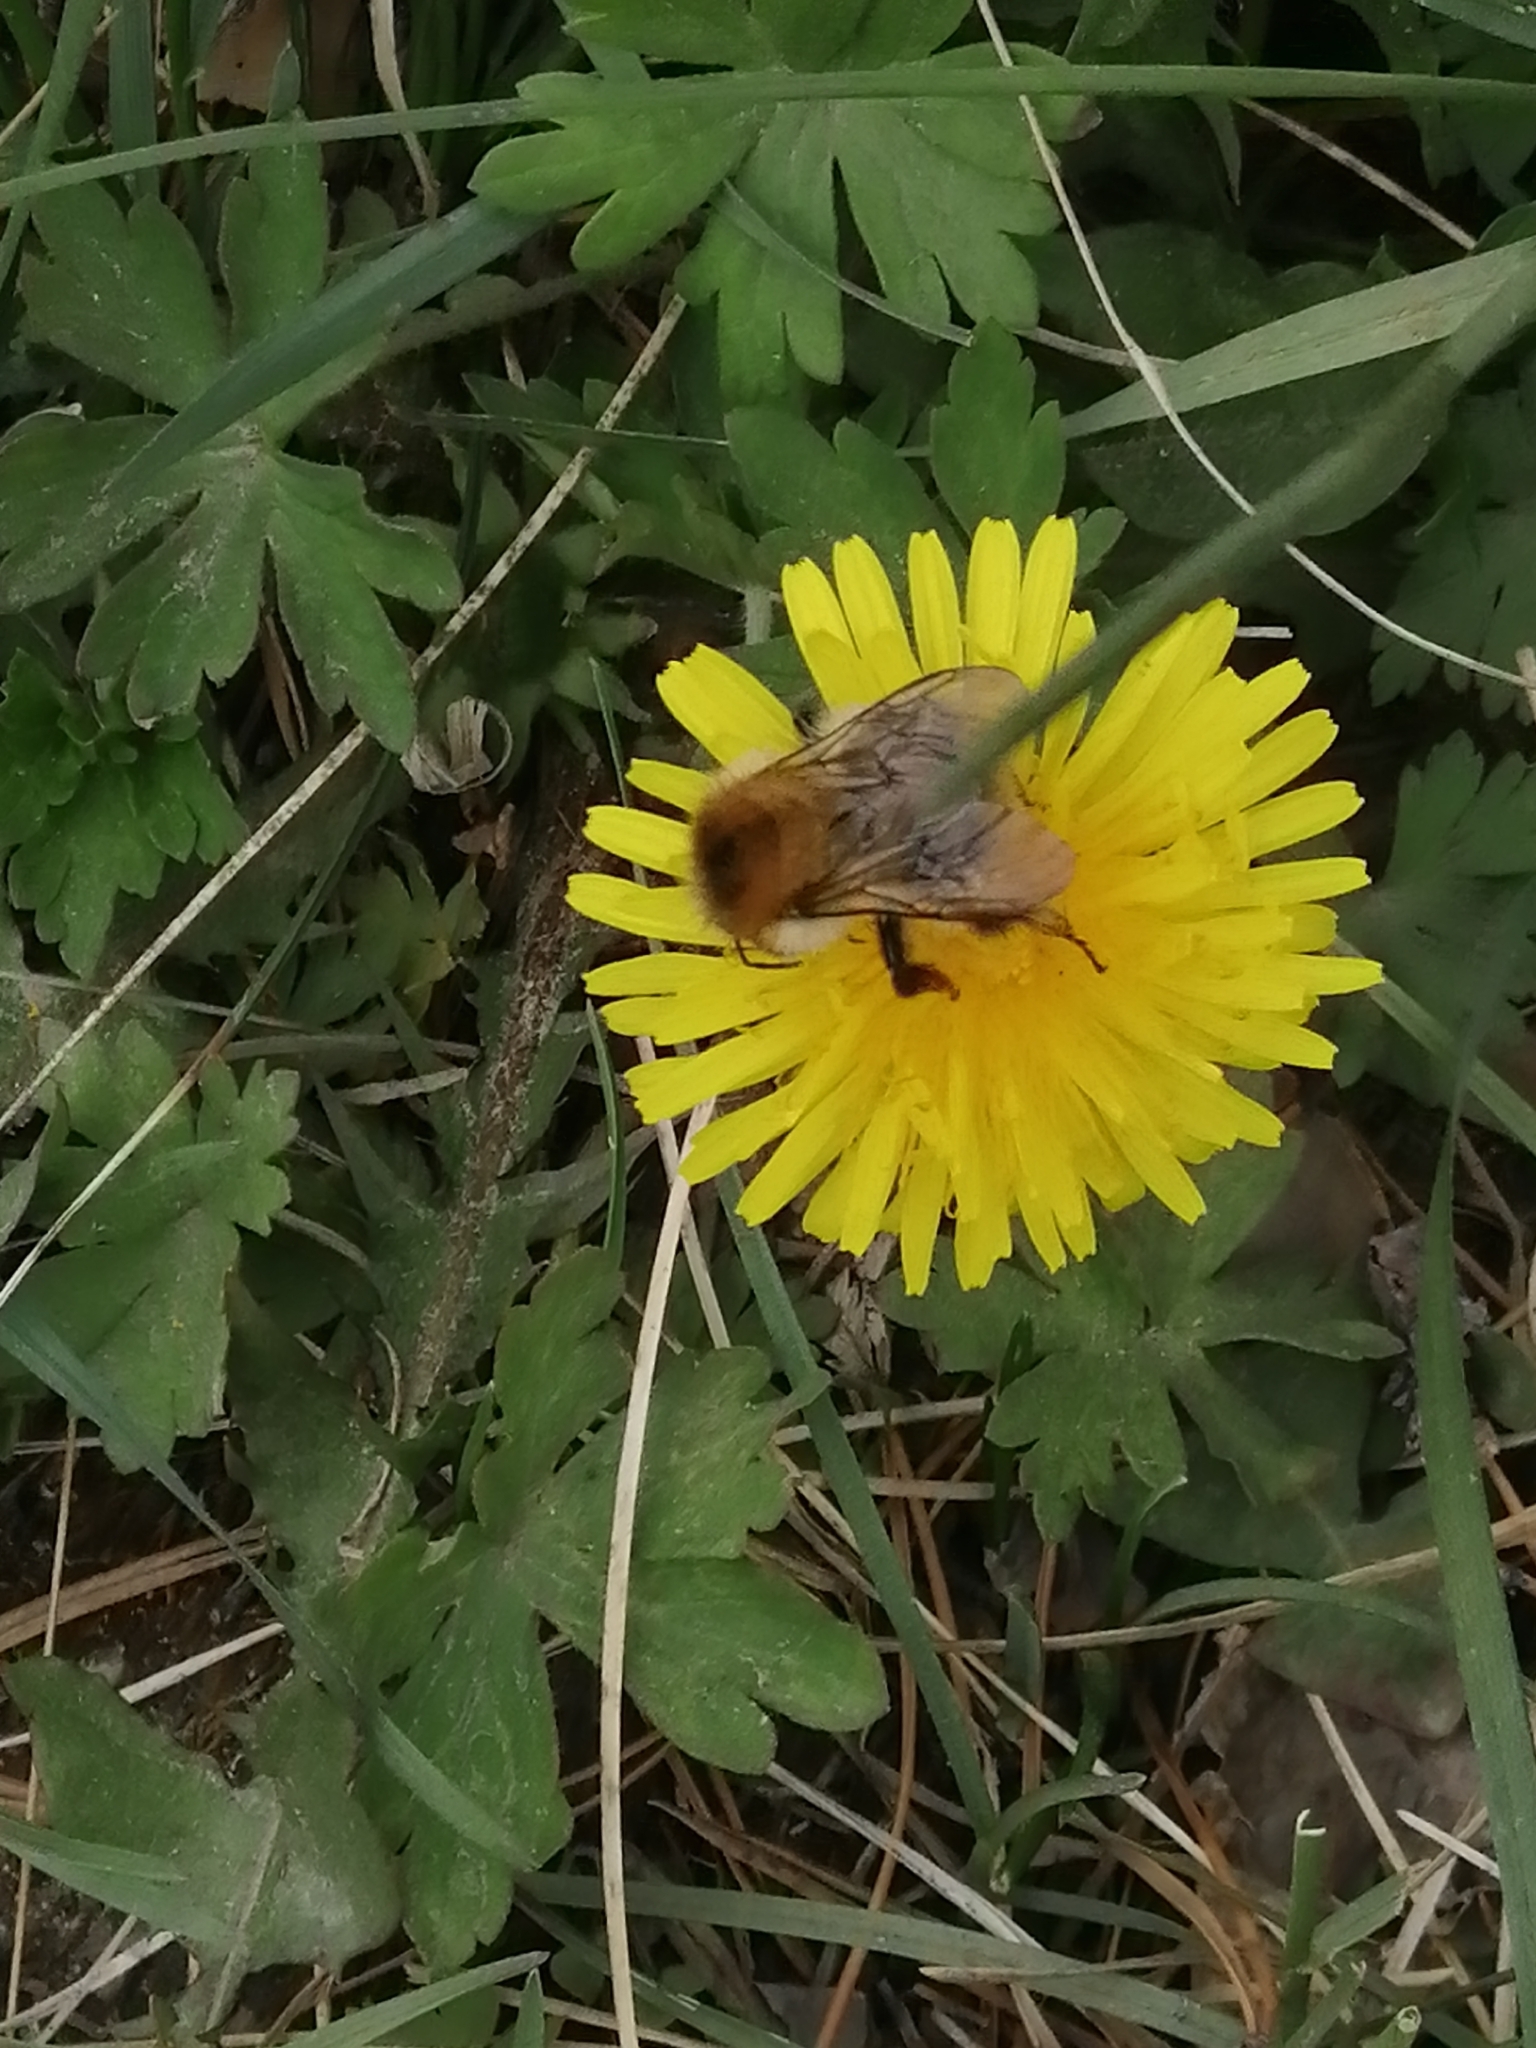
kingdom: Animalia
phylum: Arthropoda
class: Insecta
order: Hymenoptera
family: Apidae
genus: Bombus
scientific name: Bombus pascuorum
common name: Common carder bee
